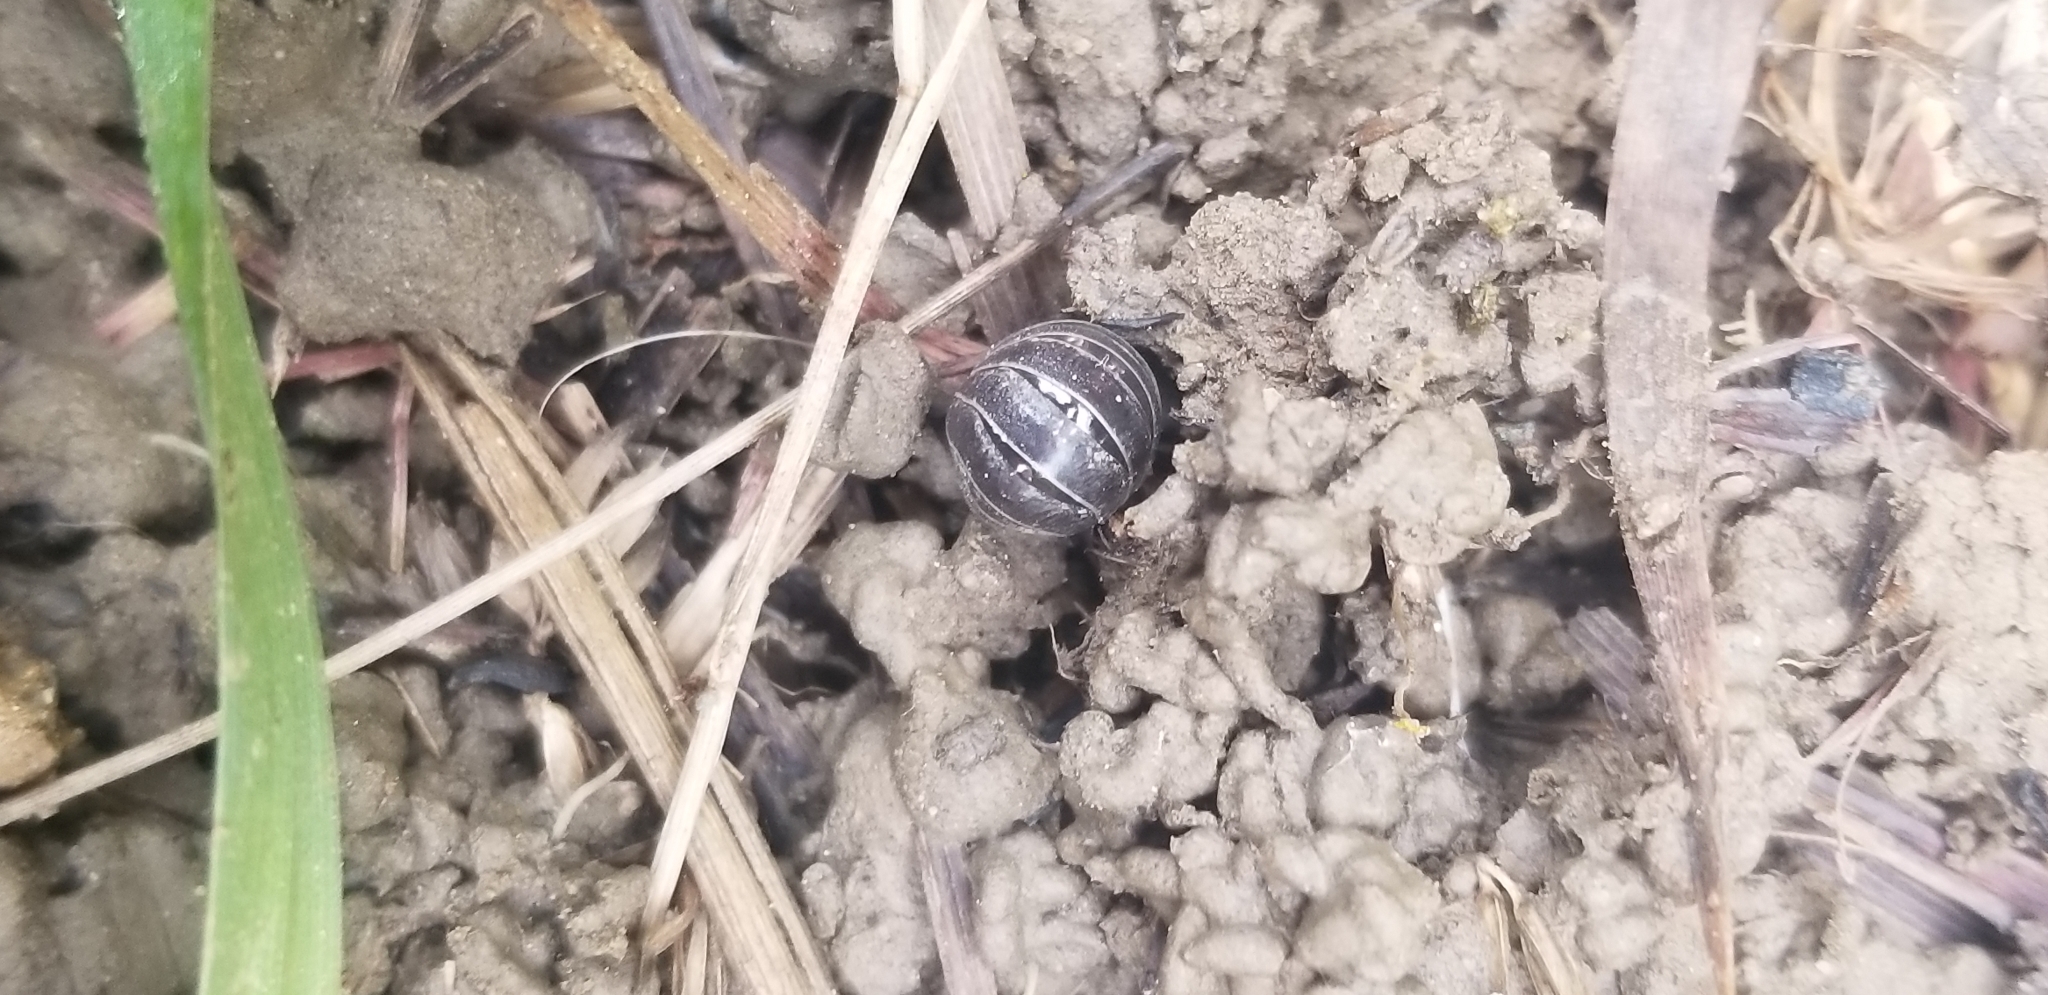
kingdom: Animalia
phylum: Arthropoda
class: Malacostraca
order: Isopoda
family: Armadillidiidae
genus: Armadillidium
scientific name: Armadillidium vulgare
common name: Common pill woodlouse
